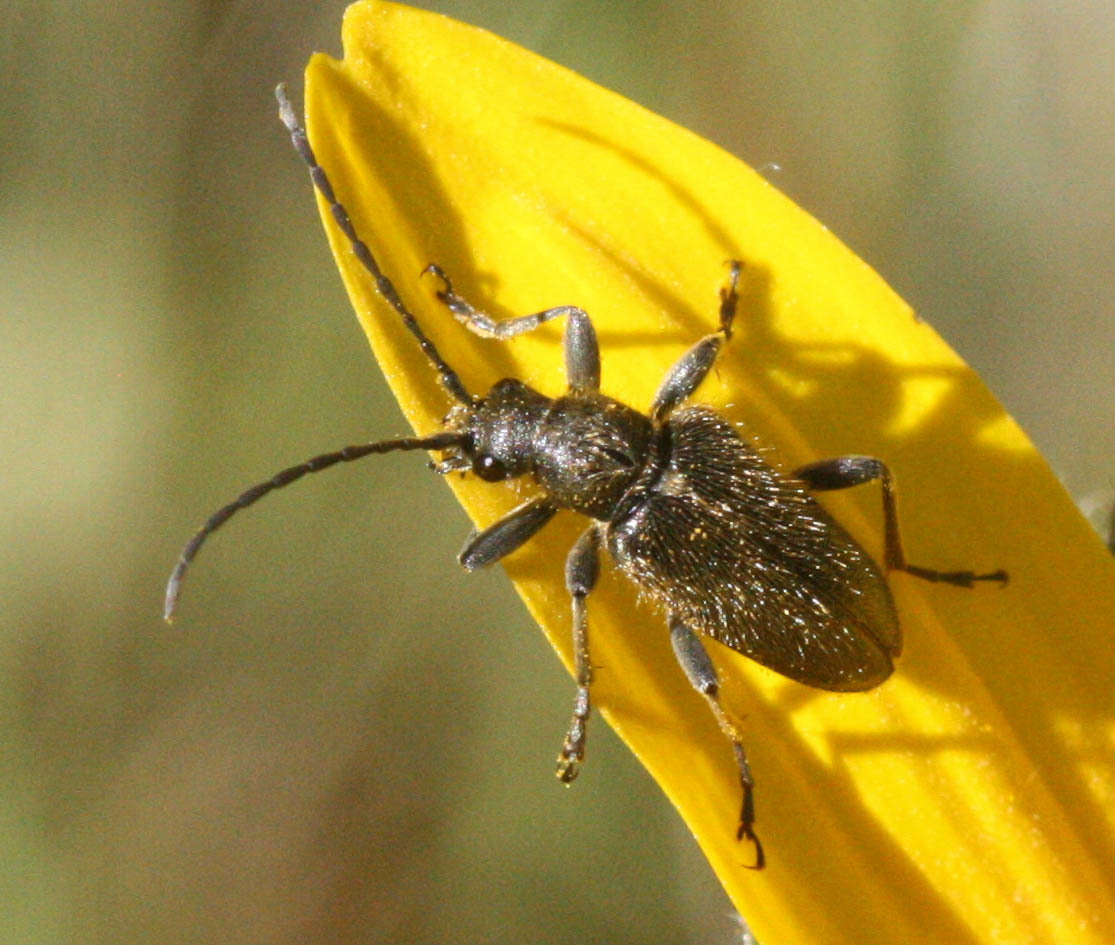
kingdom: Animalia
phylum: Arthropoda
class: Insecta
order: Coleoptera
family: Cerambycidae
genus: Brachysomida
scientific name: Brachysomida californica
